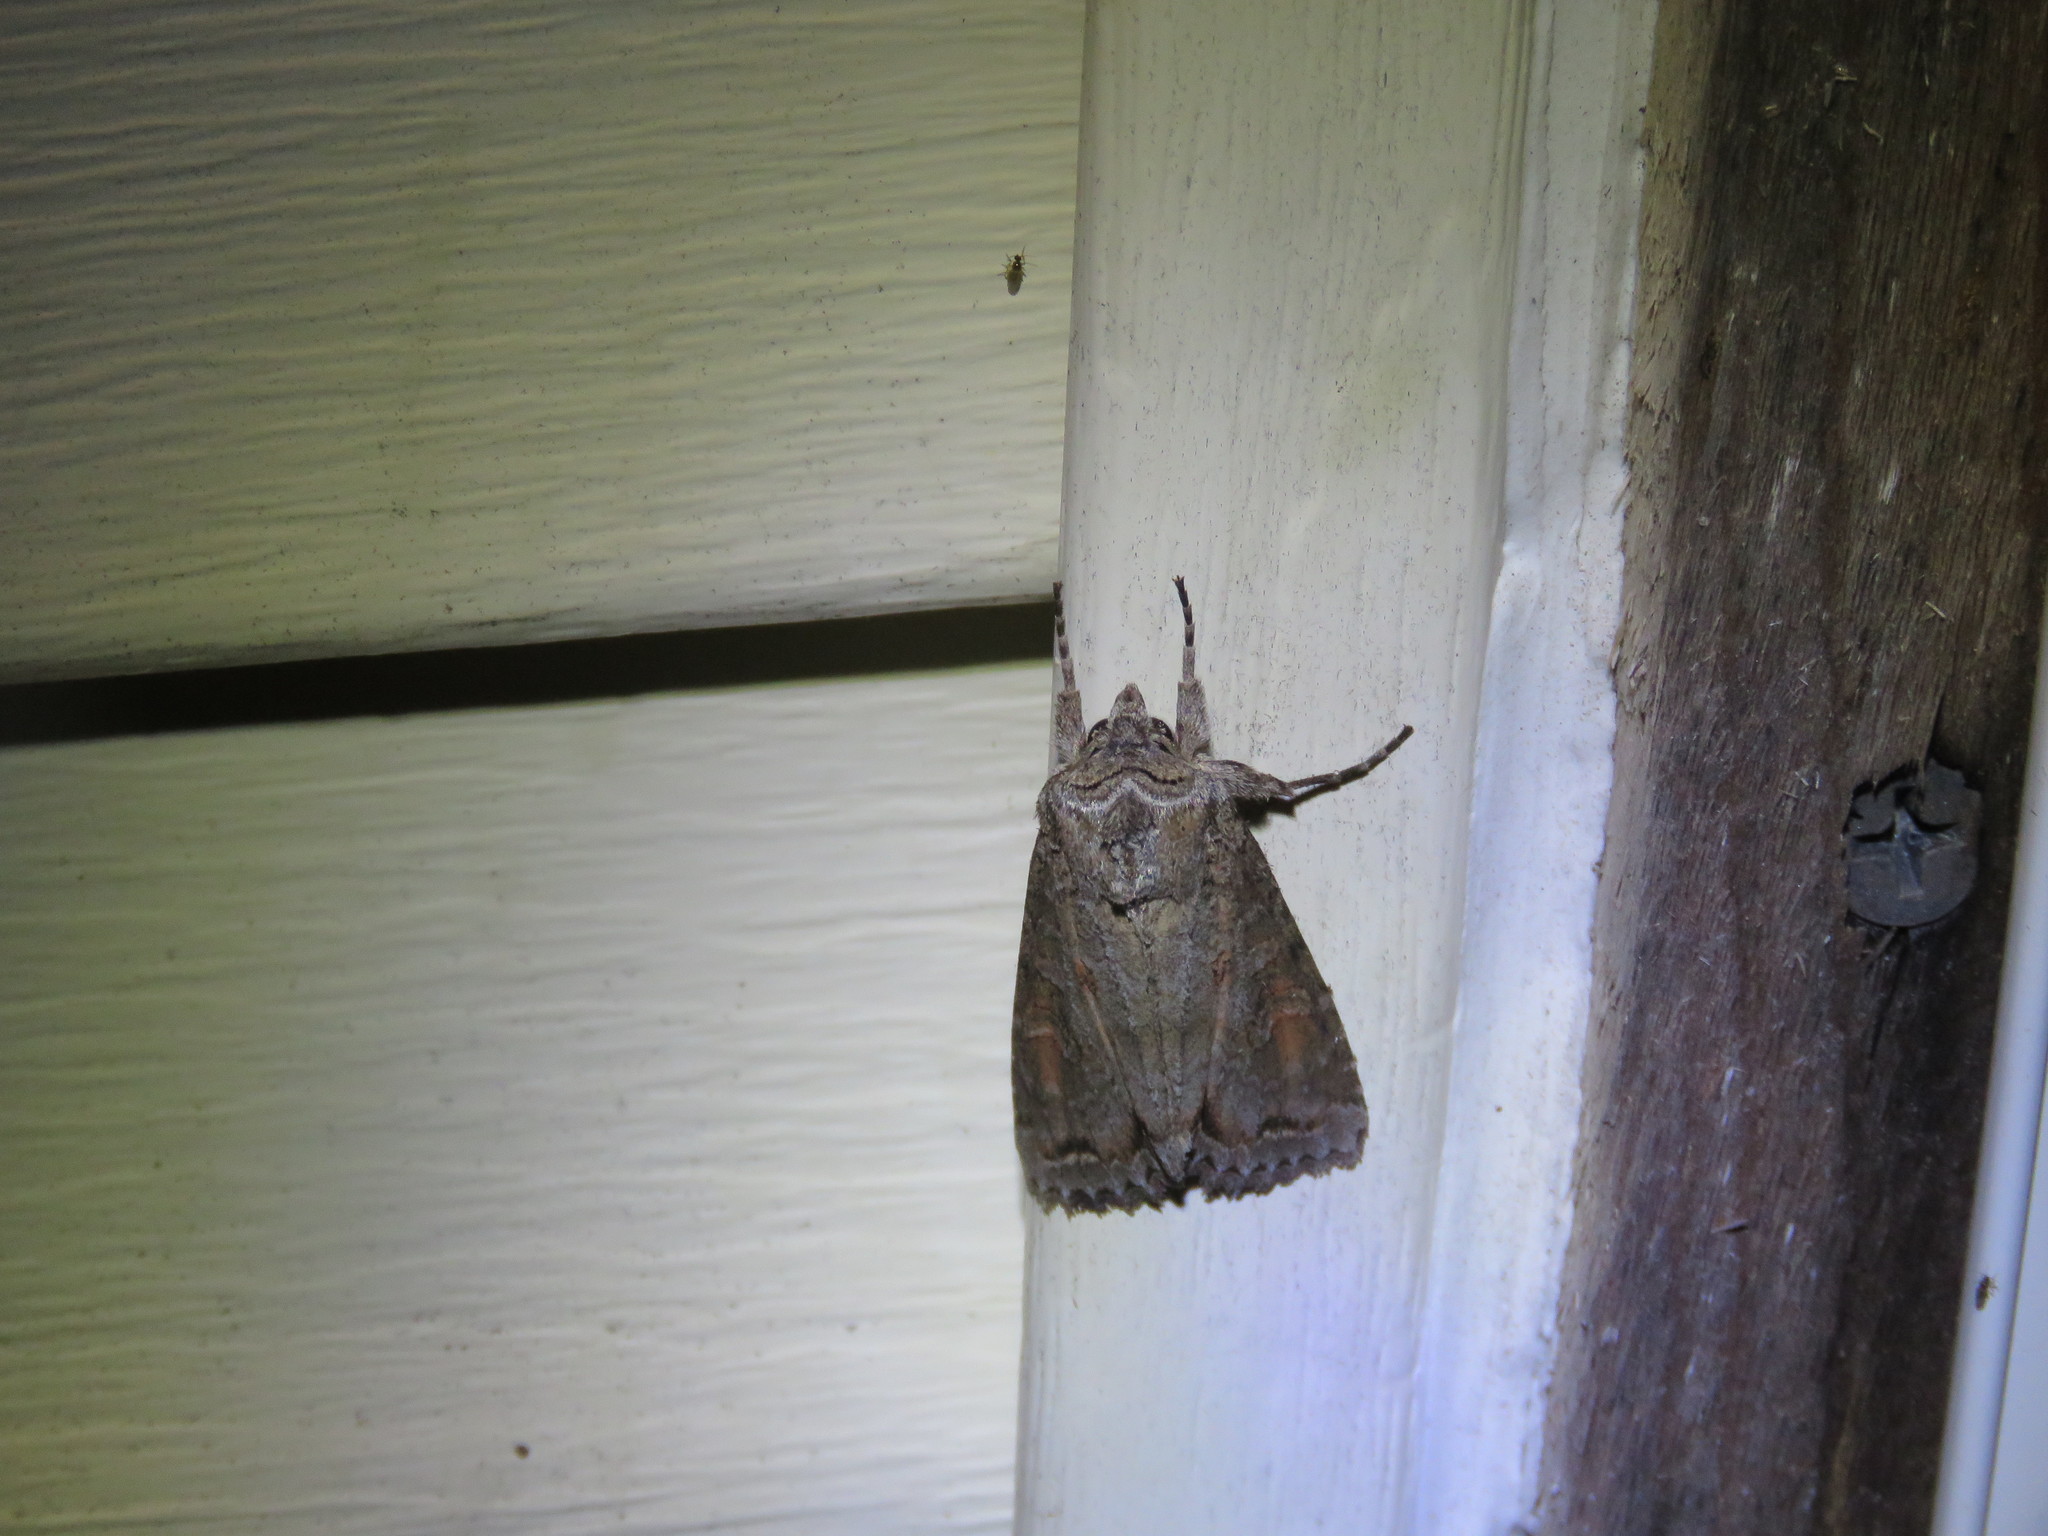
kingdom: Animalia
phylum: Arthropoda
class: Insecta
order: Lepidoptera
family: Noctuidae
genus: Polia
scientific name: Polia purpurissata
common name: Purple arches moth
